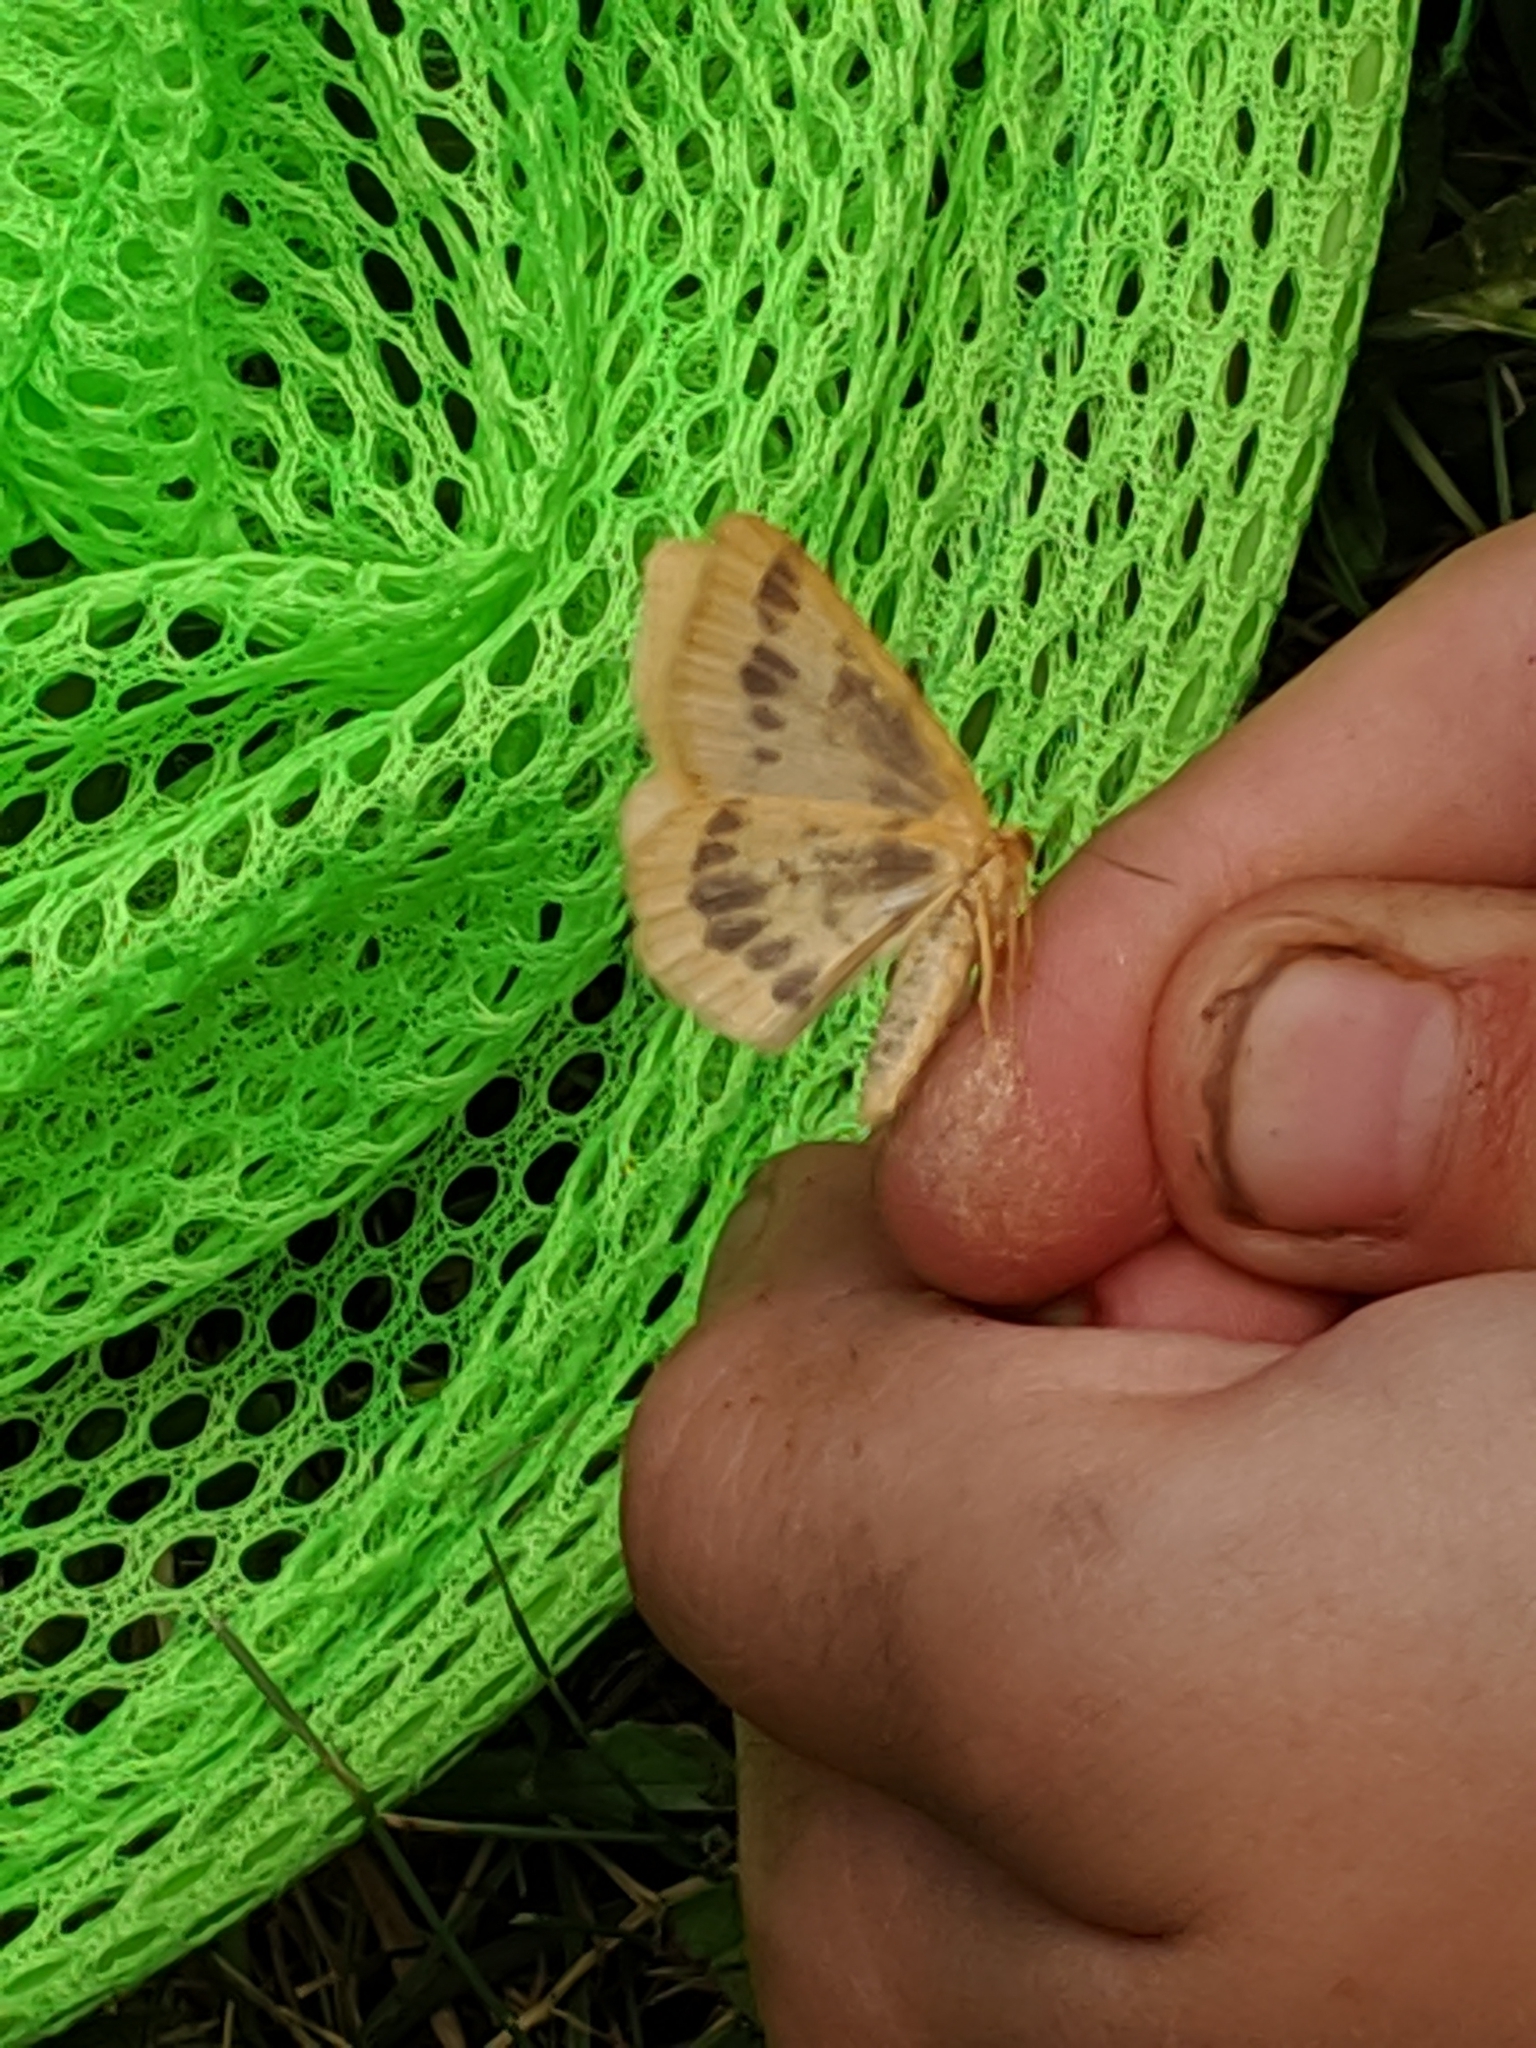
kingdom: Animalia
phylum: Arthropoda
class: Insecta
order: Lepidoptera
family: Geometridae
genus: Eubaphe
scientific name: Eubaphe mendica
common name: Beggar
